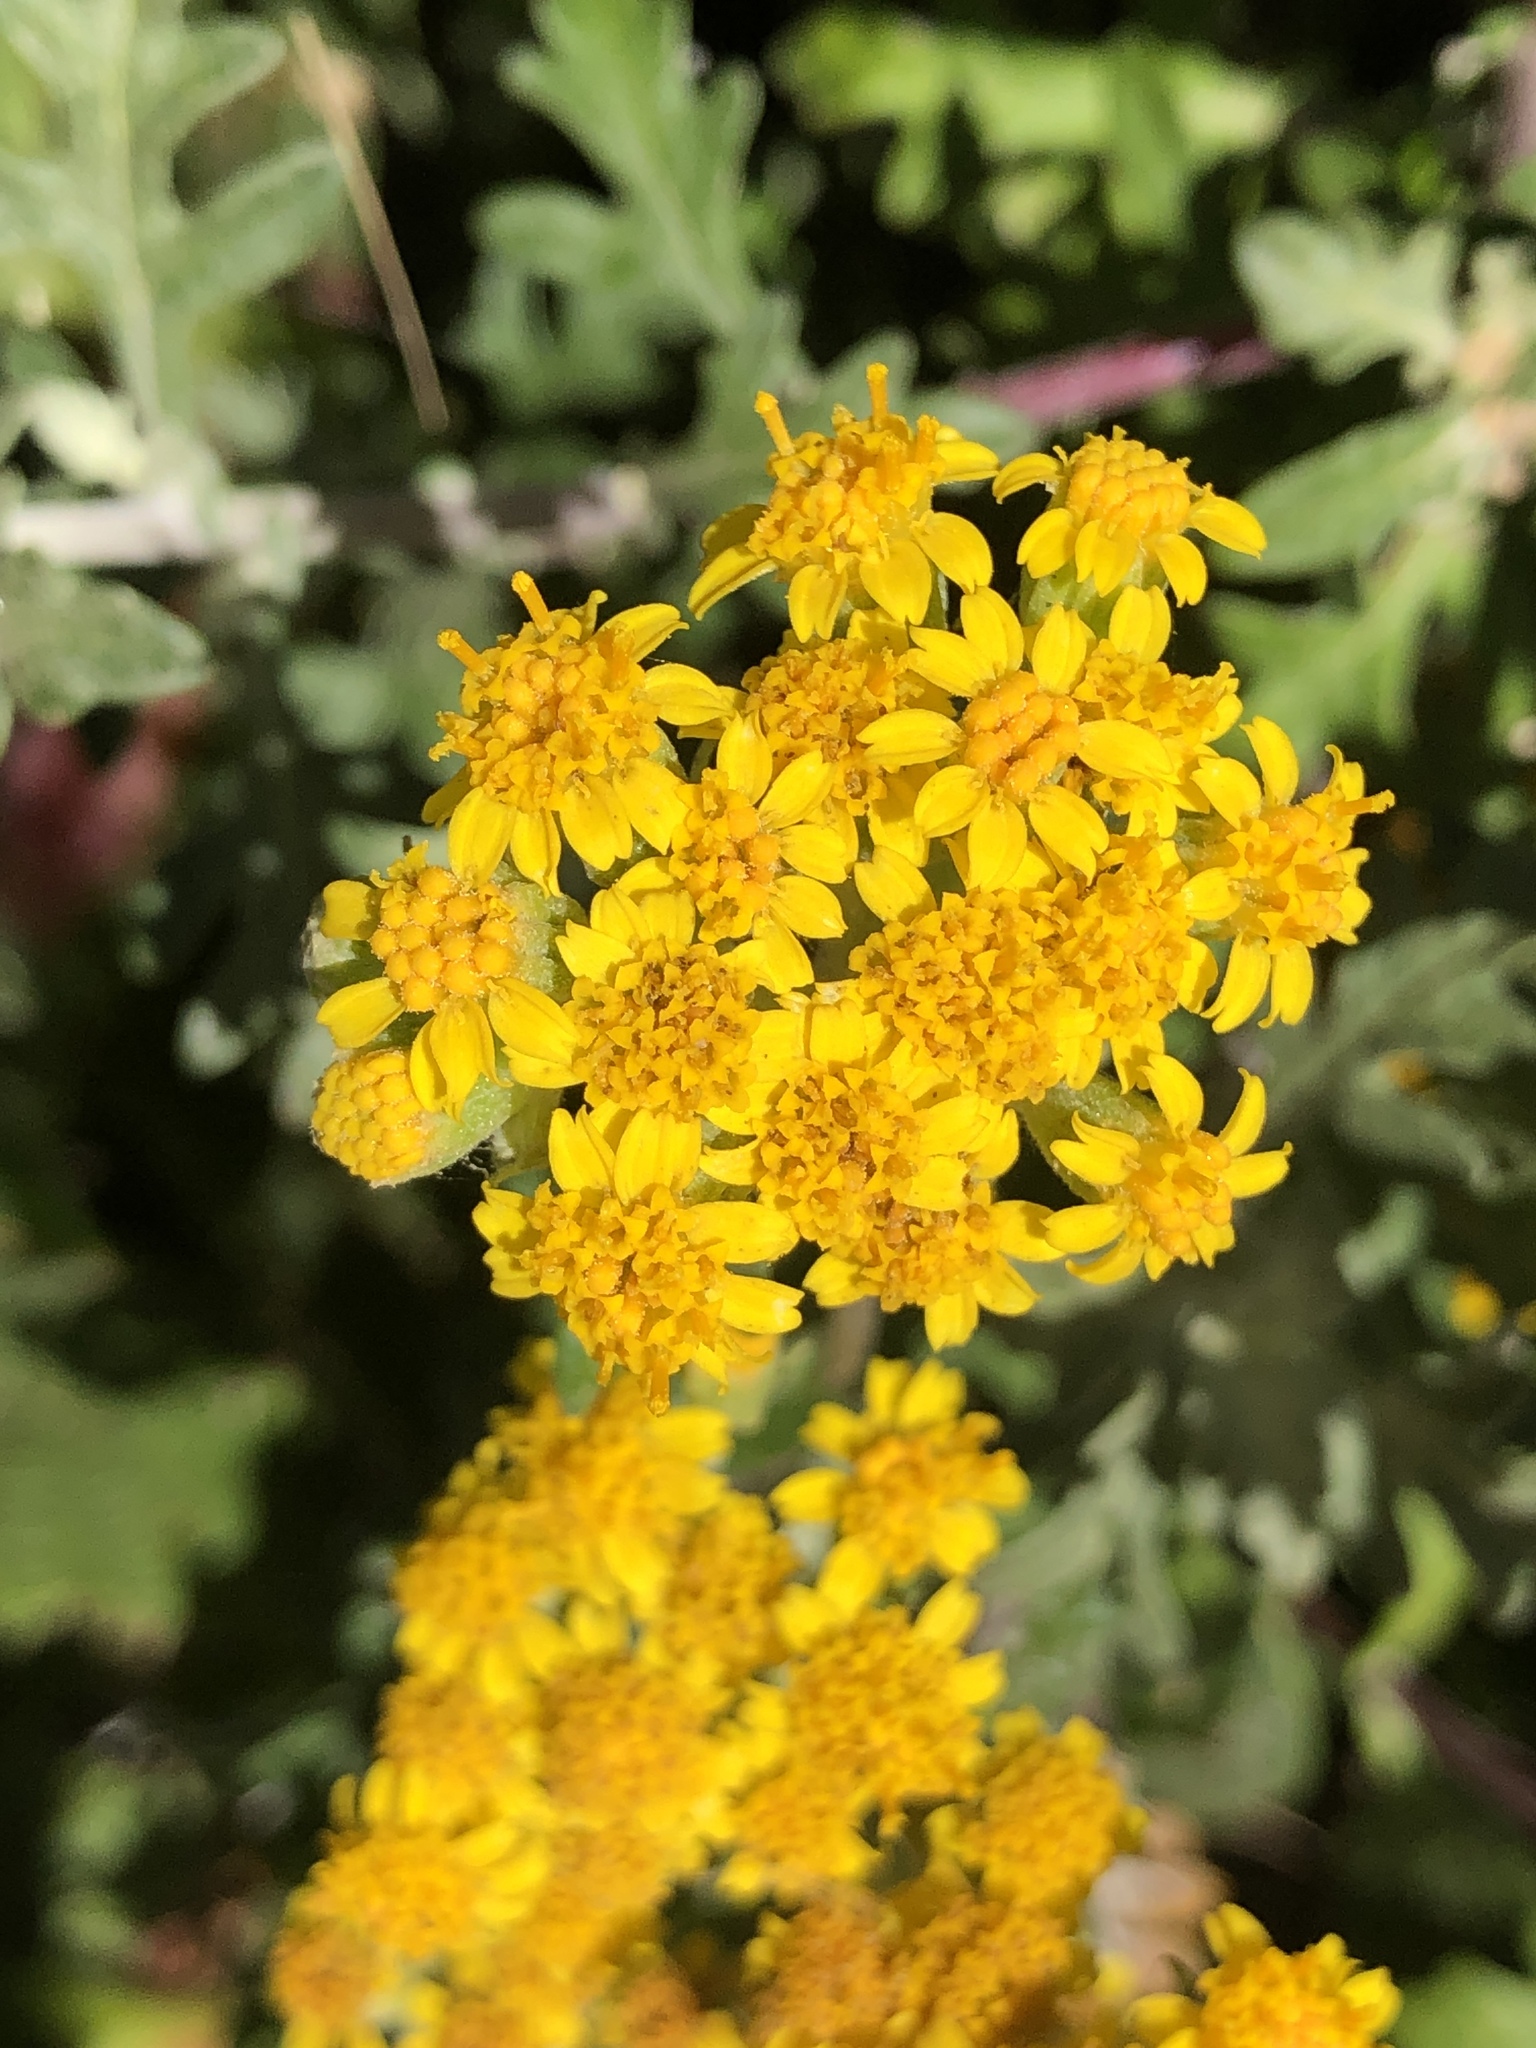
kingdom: Plantae
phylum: Tracheophyta
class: Magnoliopsida
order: Asterales
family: Asteraceae
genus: Eriophyllum
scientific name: Eriophyllum staechadifolium
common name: Lizardtail
